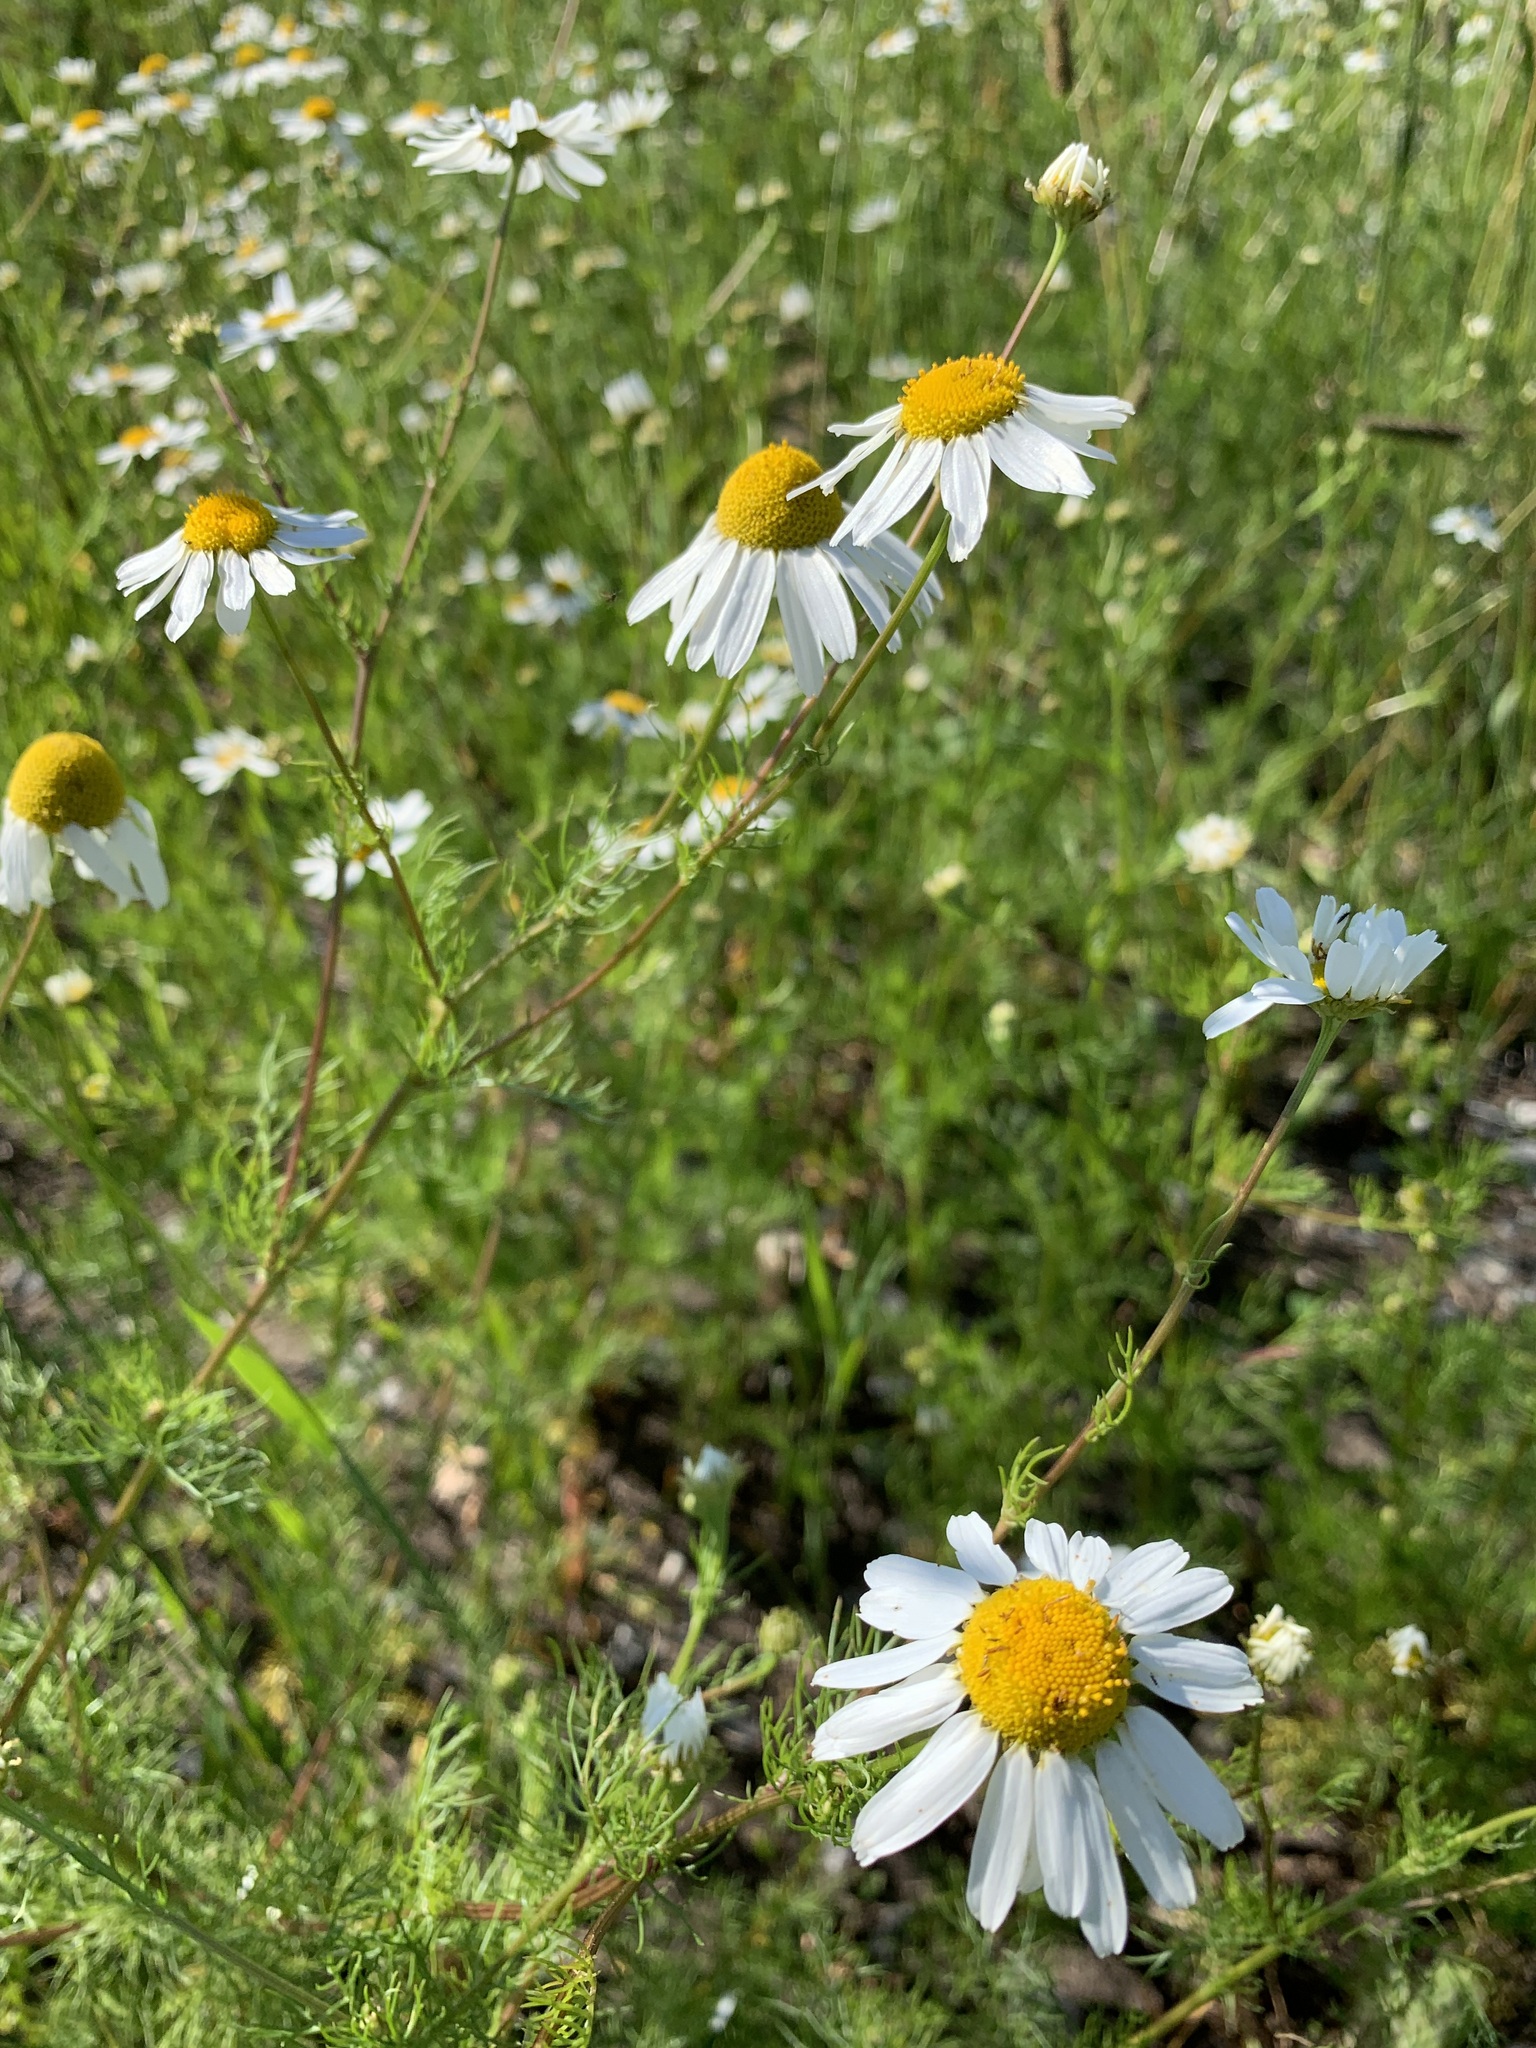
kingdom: Plantae
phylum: Tracheophyta
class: Magnoliopsida
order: Asterales
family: Asteraceae
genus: Tripleurospermum
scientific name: Tripleurospermum inodorum
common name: Scentless mayweed
